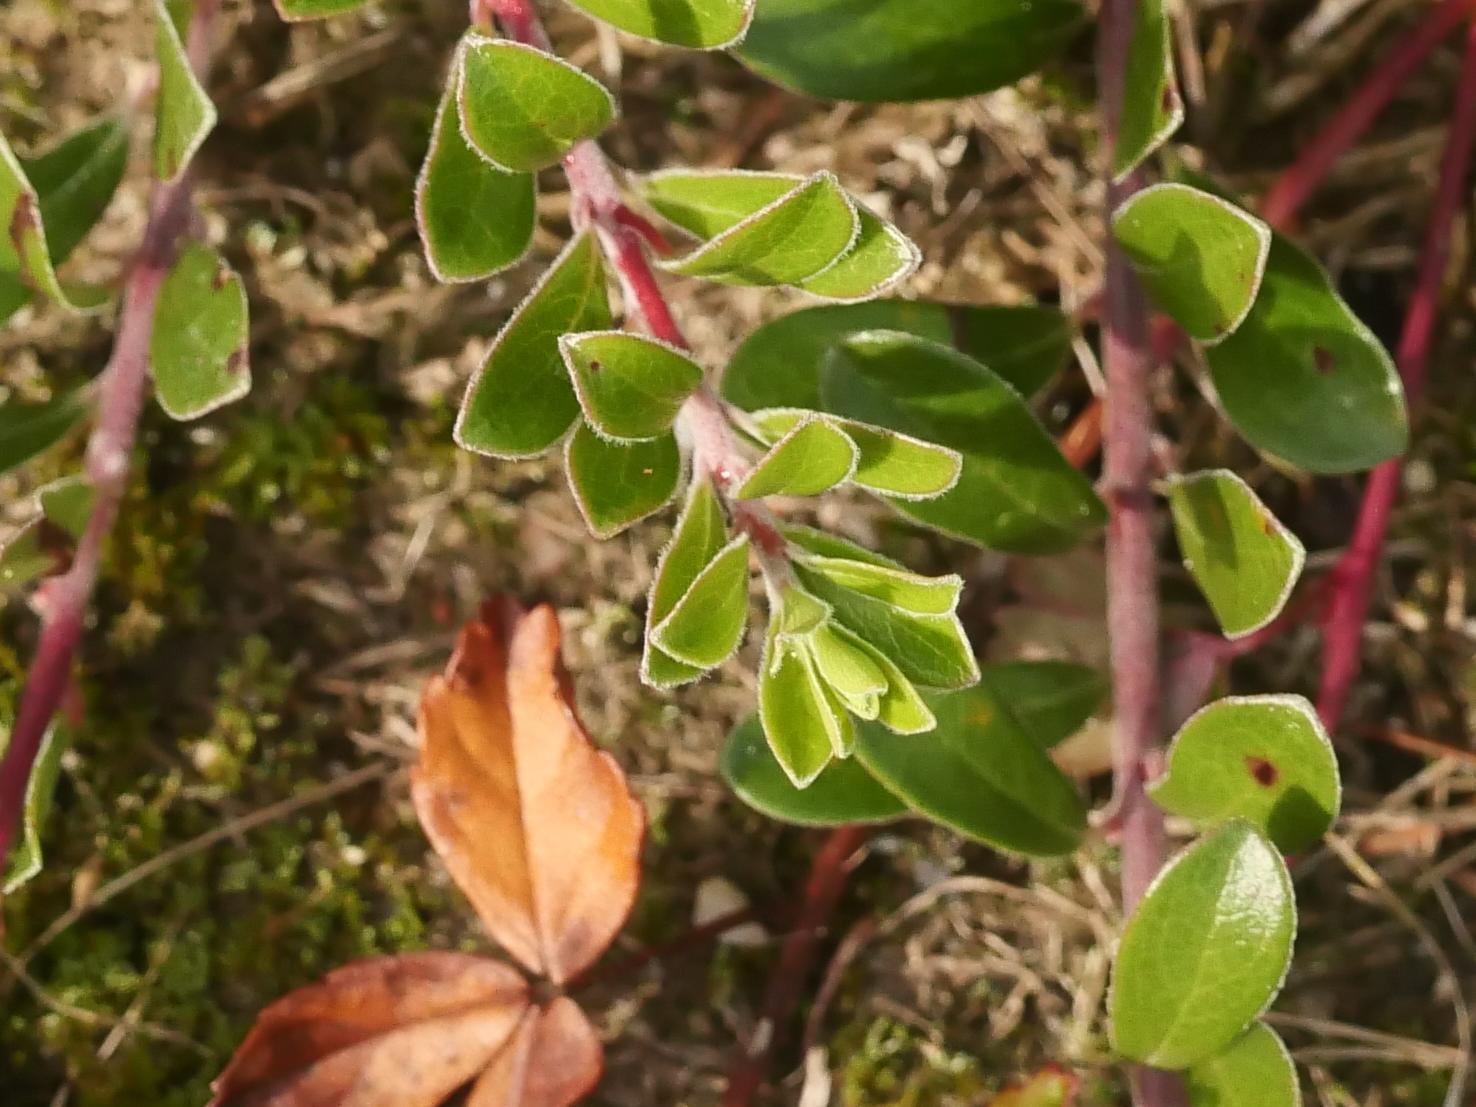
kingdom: Plantae
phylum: Tracheophyta
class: Magnoliopsida
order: Ericales
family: Ericaceae
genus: Arctostaphylos
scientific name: Arctostaphylos uva-ursi
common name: Bearberry
